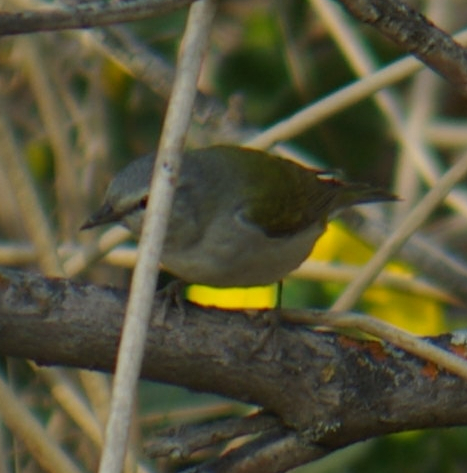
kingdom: Animalia
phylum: Chordata
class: Aves
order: Passeriformes
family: Parulidae
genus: Leiothlypis
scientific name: Leiothlypis peregrina
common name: Tennessee warbler
